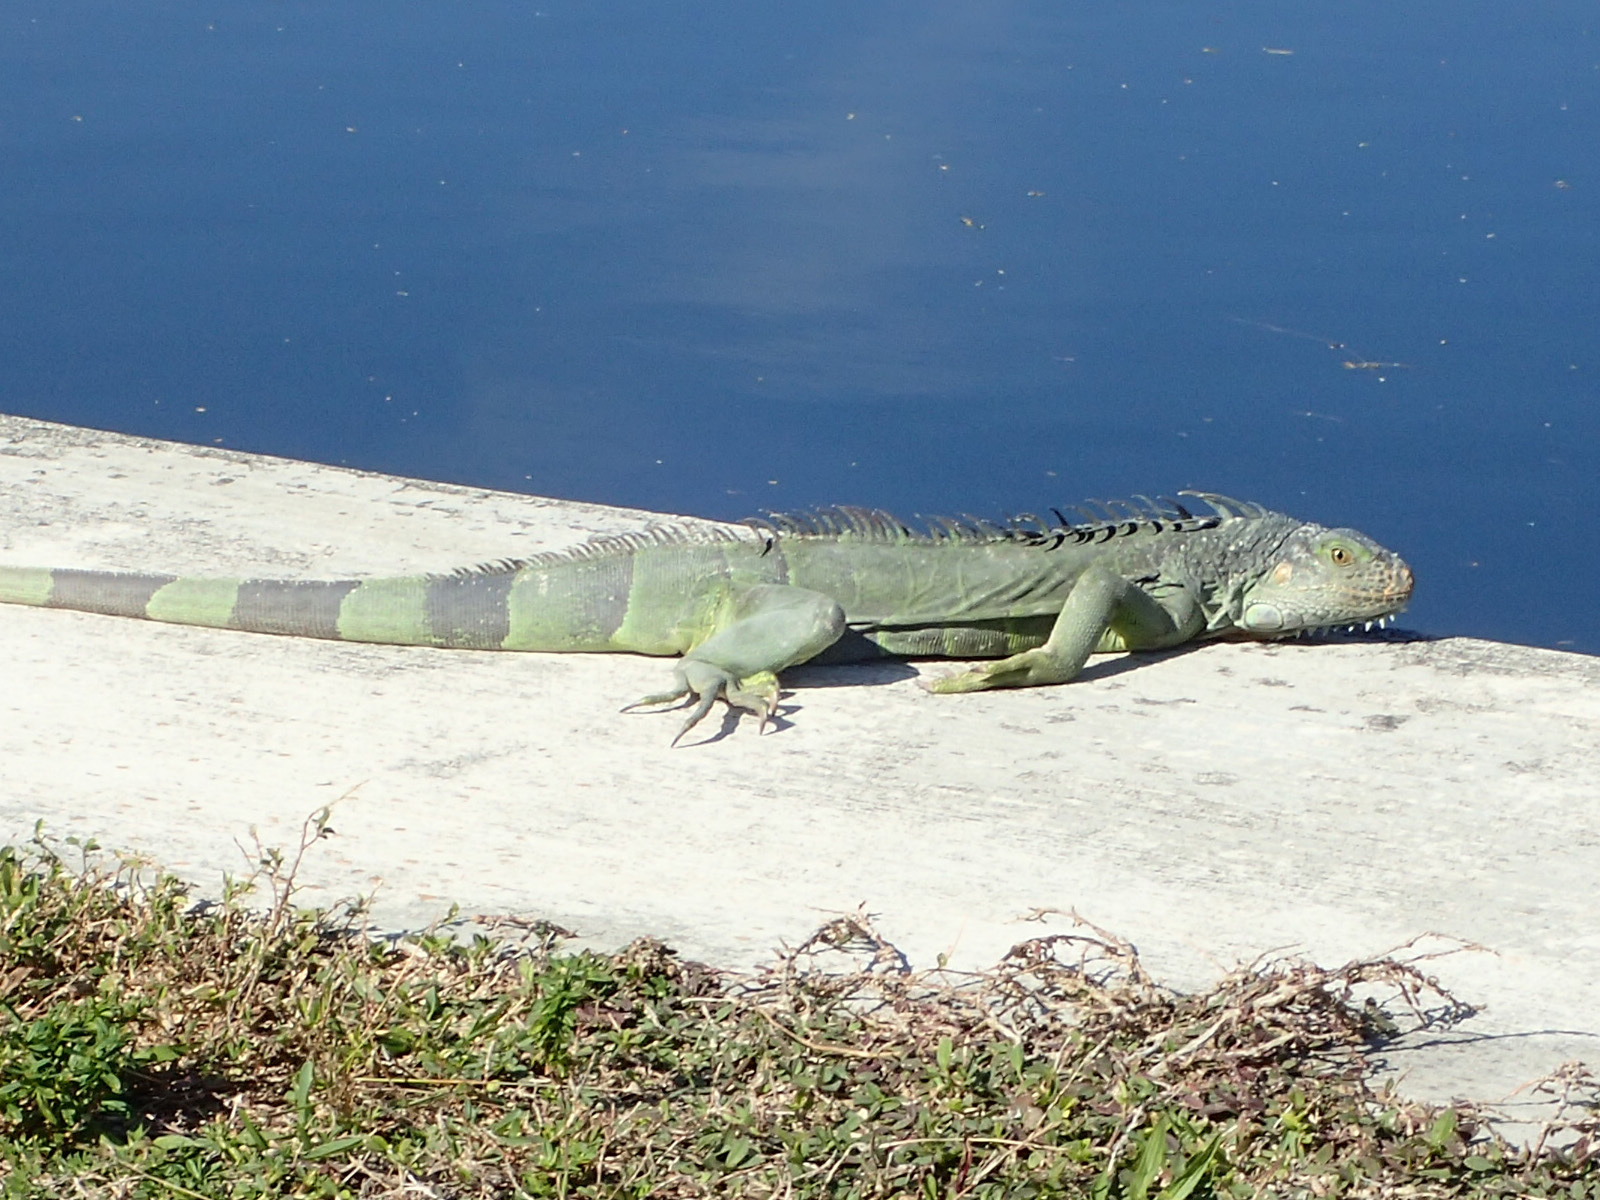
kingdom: Animalia
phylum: Chordata
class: Squamata
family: Iguanidae
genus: Iguana
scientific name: Iguana iguana
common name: Green iguana
